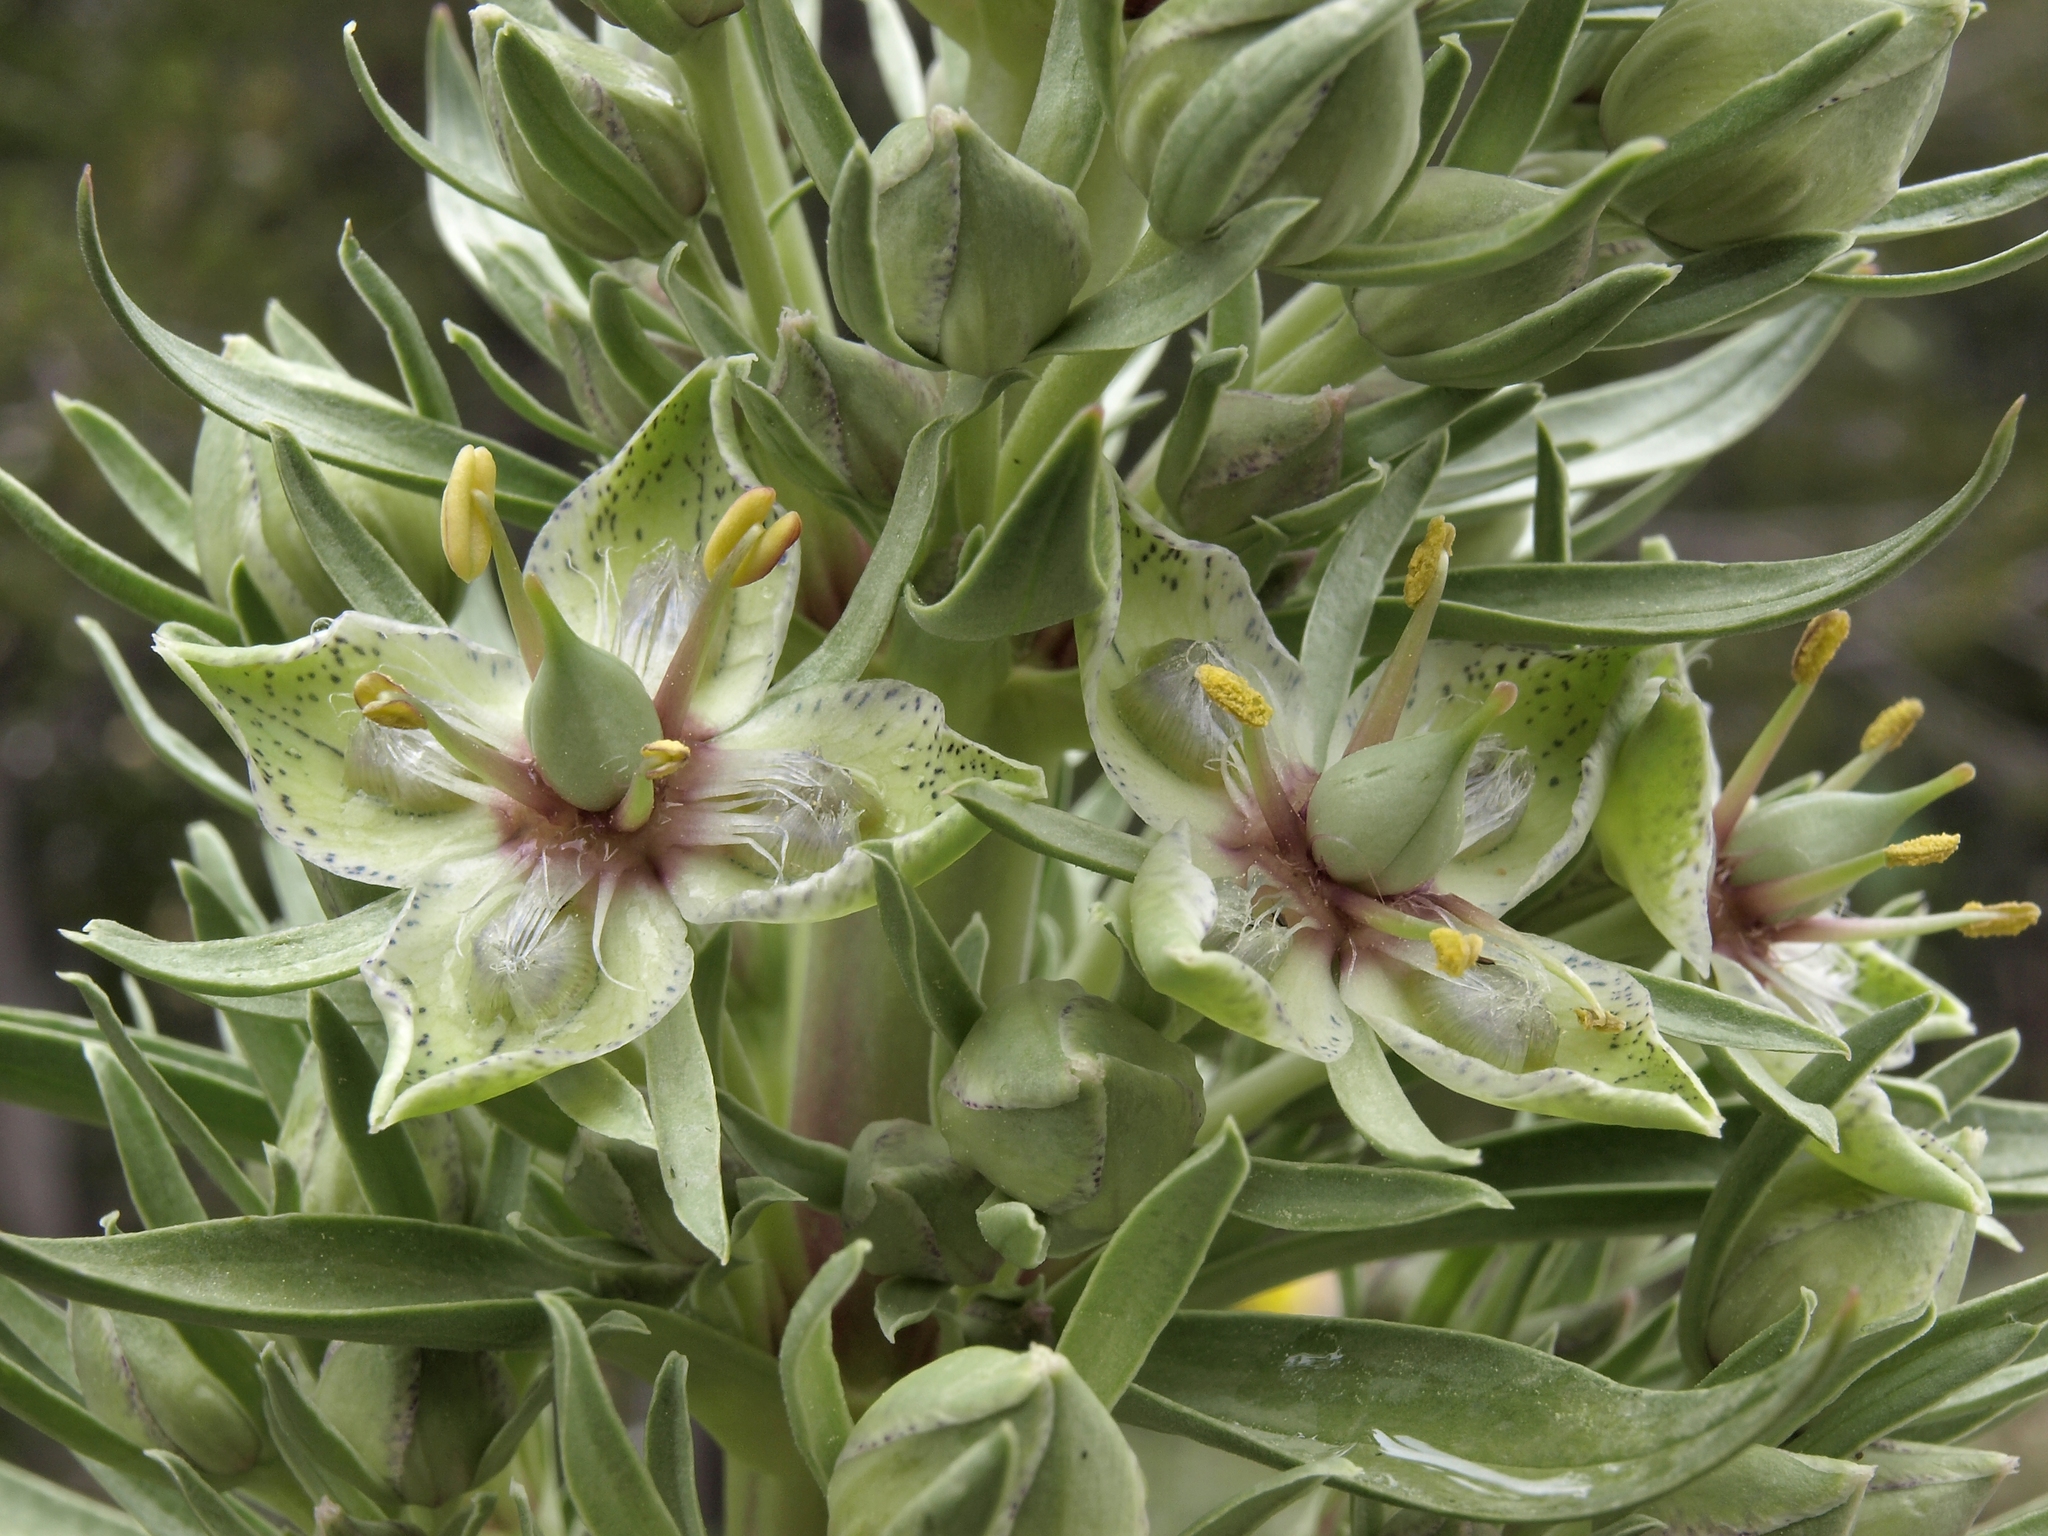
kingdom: Plantae
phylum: Tracheophyta
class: Magnoliopsida
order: Gentianales
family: Gentianaceae
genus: Frasera
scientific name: Frasera speciosa
